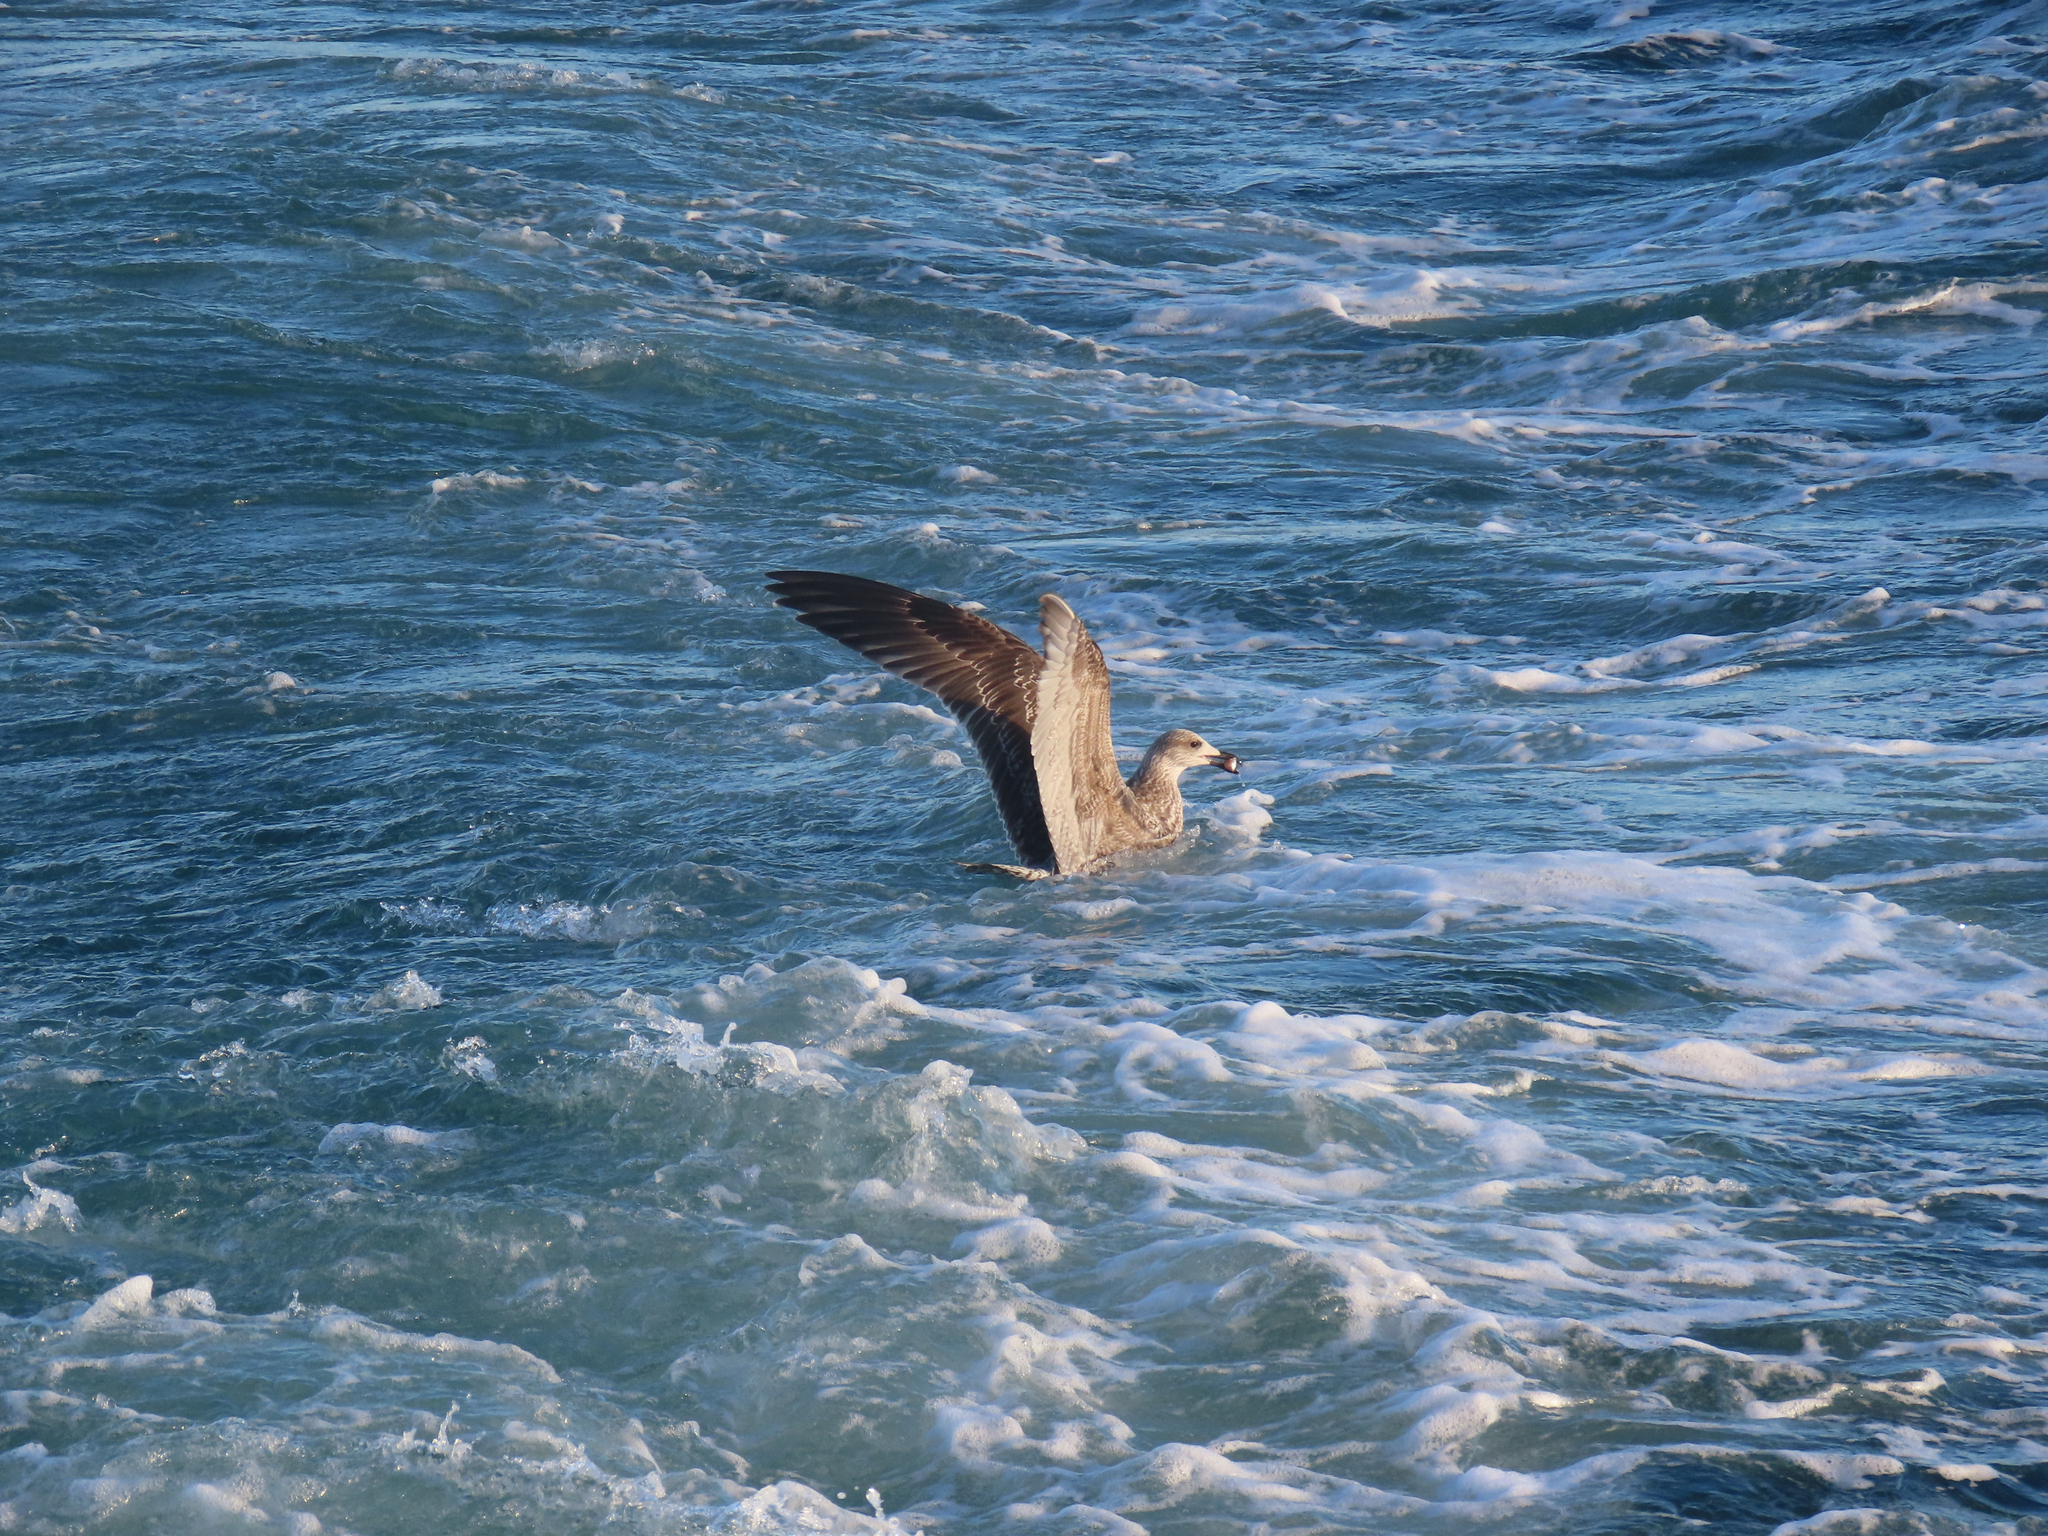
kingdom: Animalia
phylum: Chordata
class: Aves
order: Charadriiformes
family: Laridae
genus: Larus
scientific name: Larus fuscus
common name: Lesser black-backed gull
